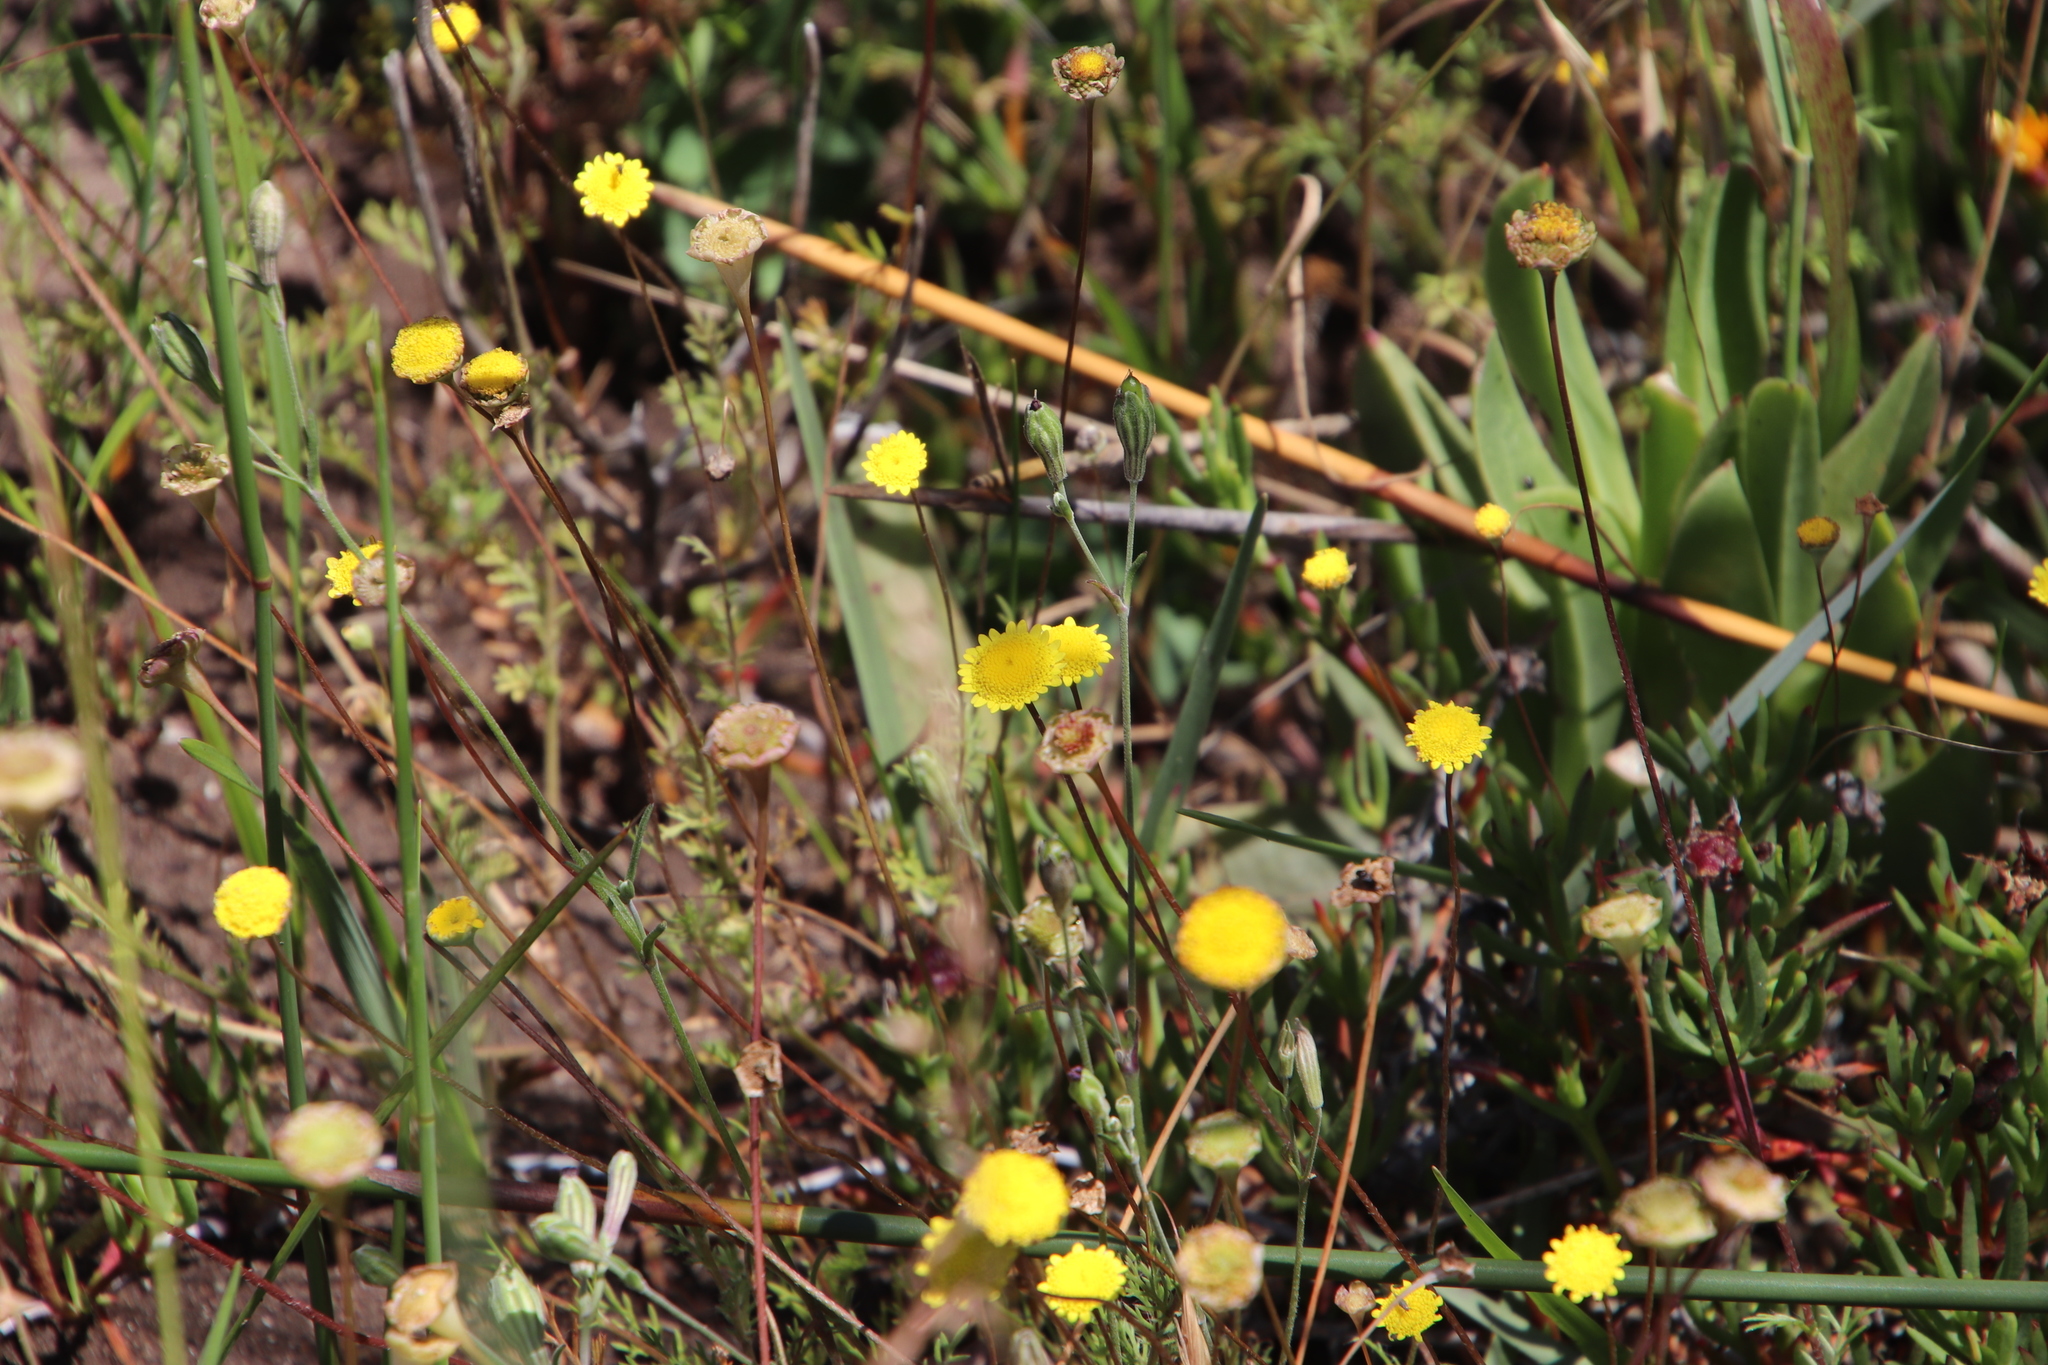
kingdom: Plantae
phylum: Tracheophyta
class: Magnoliopsida
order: Asterales
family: Asteraceae
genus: Cotula
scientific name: Cotula pruinosa
